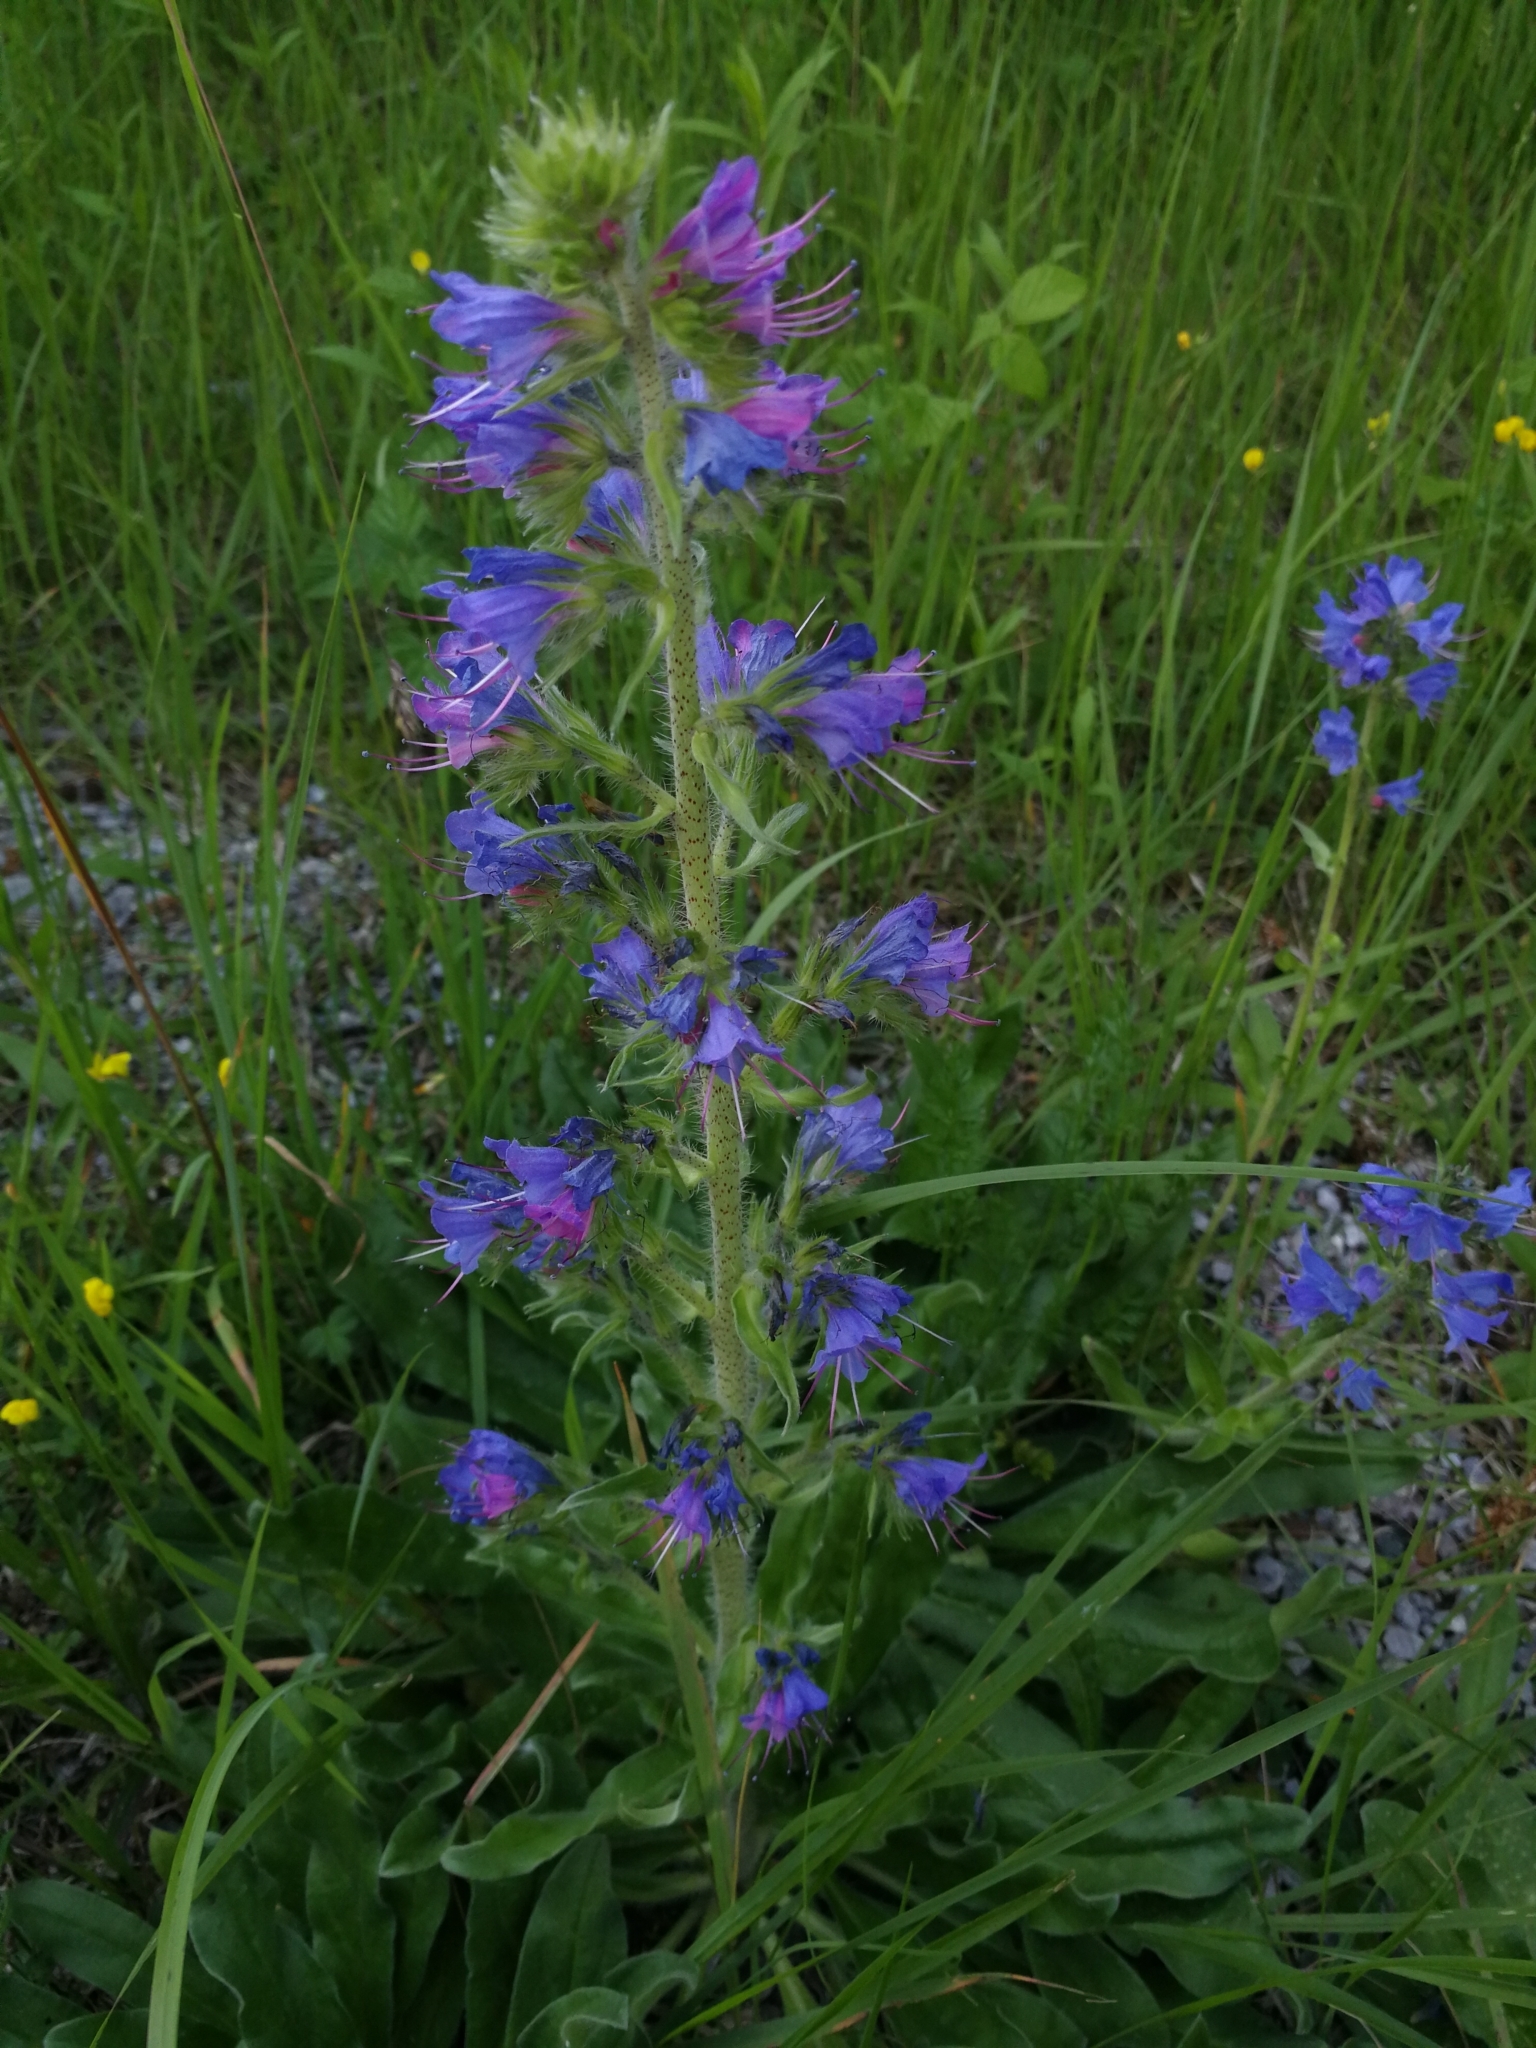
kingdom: Plantae
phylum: Tracheophyta
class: Magnoliopsida
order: Boraginales
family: Boraginaceae
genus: Echium
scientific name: Echium vulgare
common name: Common viper's bugloss
